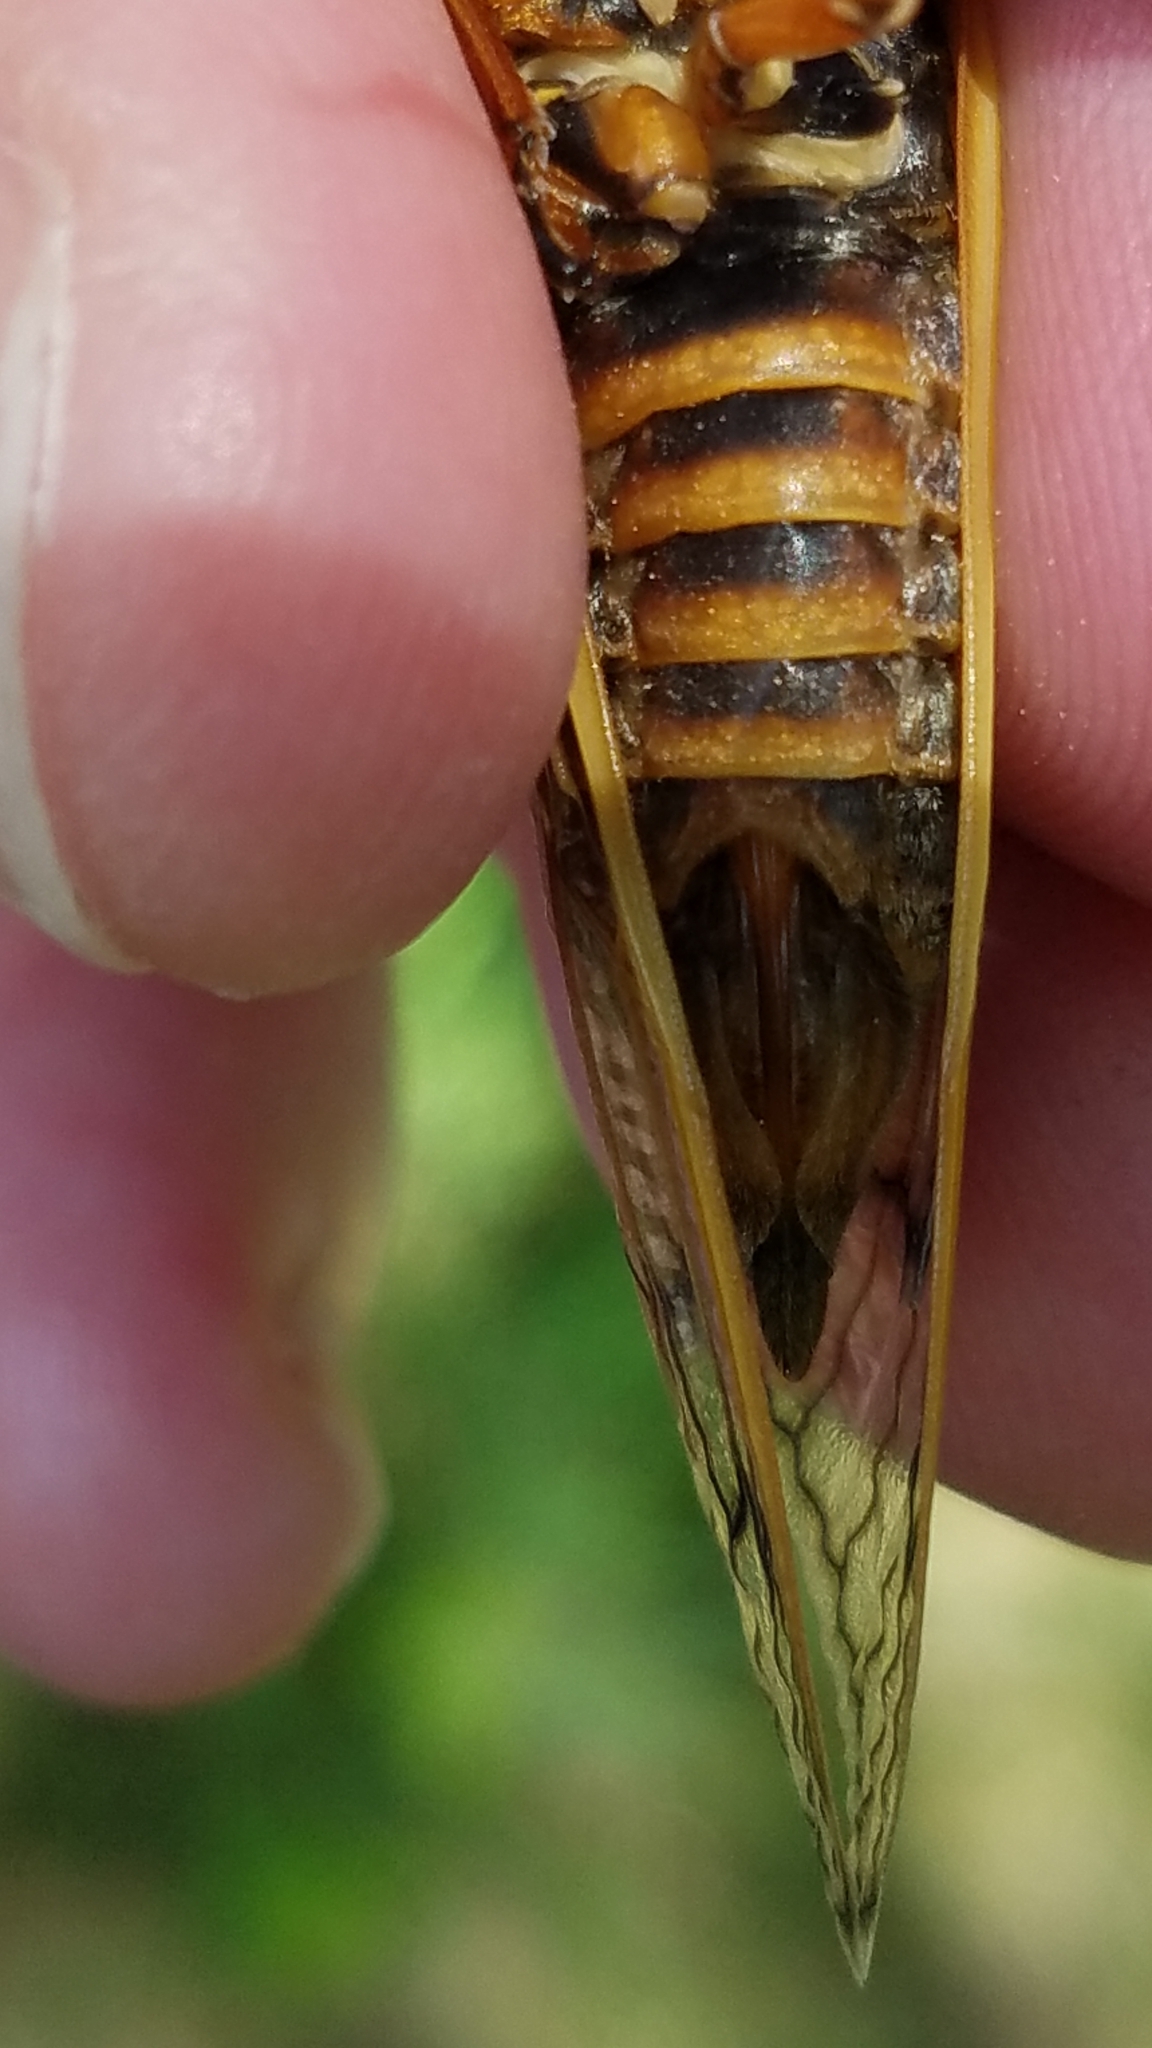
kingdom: Animalia
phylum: Arthropoda
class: Insecta
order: Hemiptera
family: Cicadidae
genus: Magicicada
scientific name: Magicicada septendecim
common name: Periodical cicada
